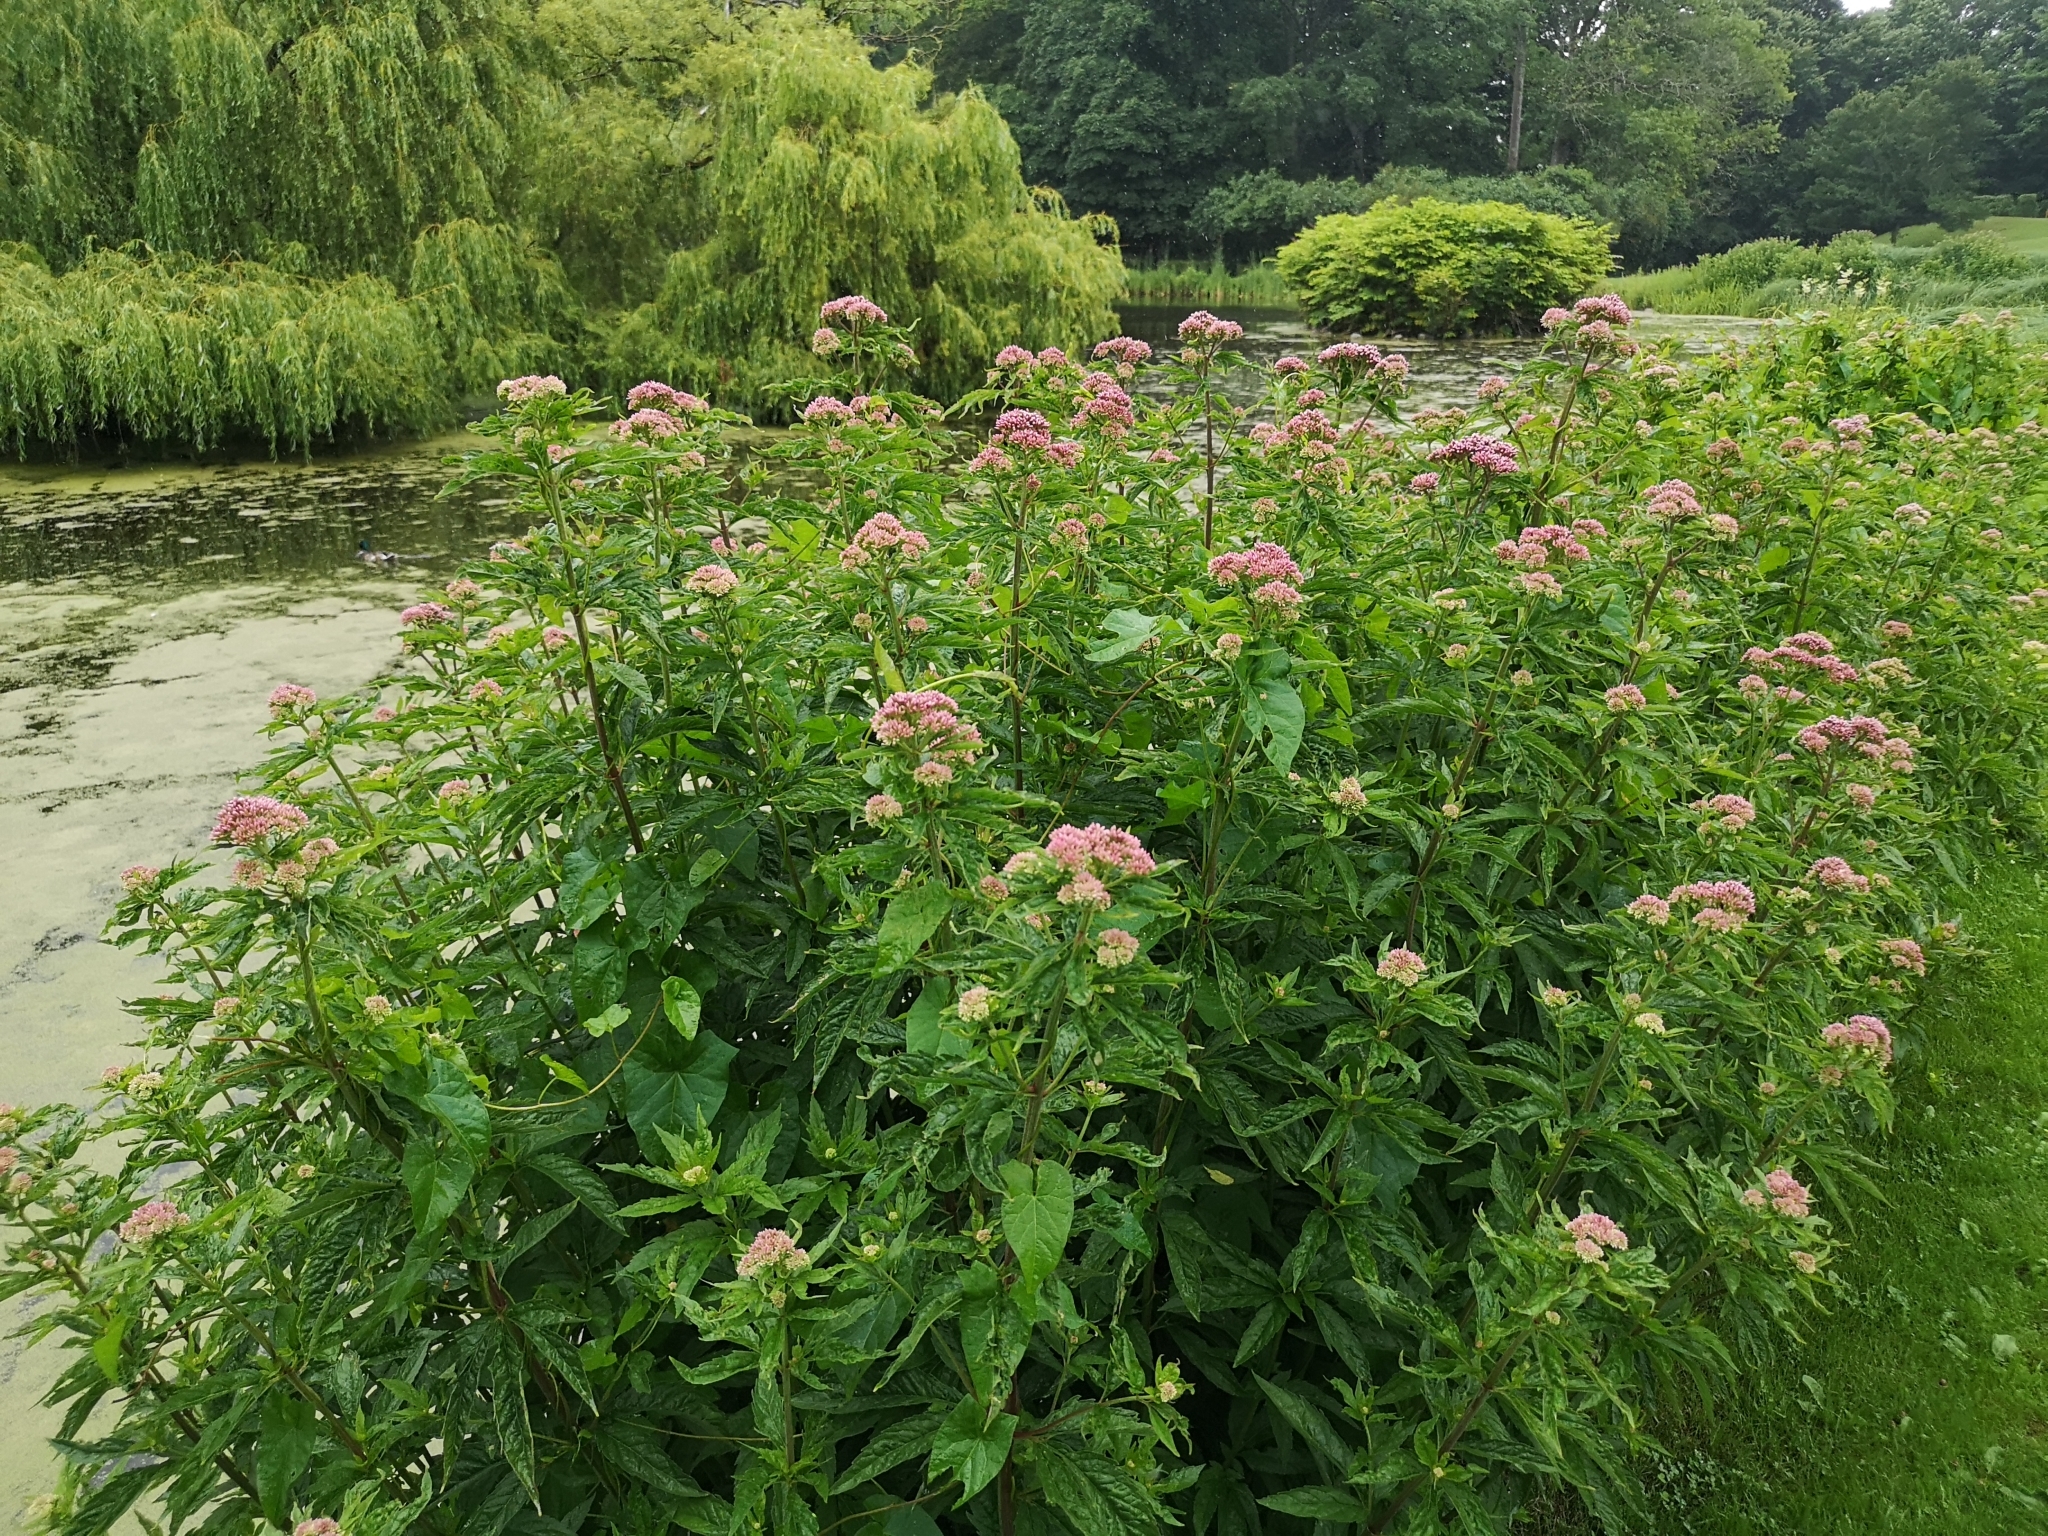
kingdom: Plantae
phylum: Tracheophyta
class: Magnoliopsida
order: Asterales
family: Asteraceae
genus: Eupatorium
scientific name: Eupatorium cannabinum
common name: Hemp-agrimony
